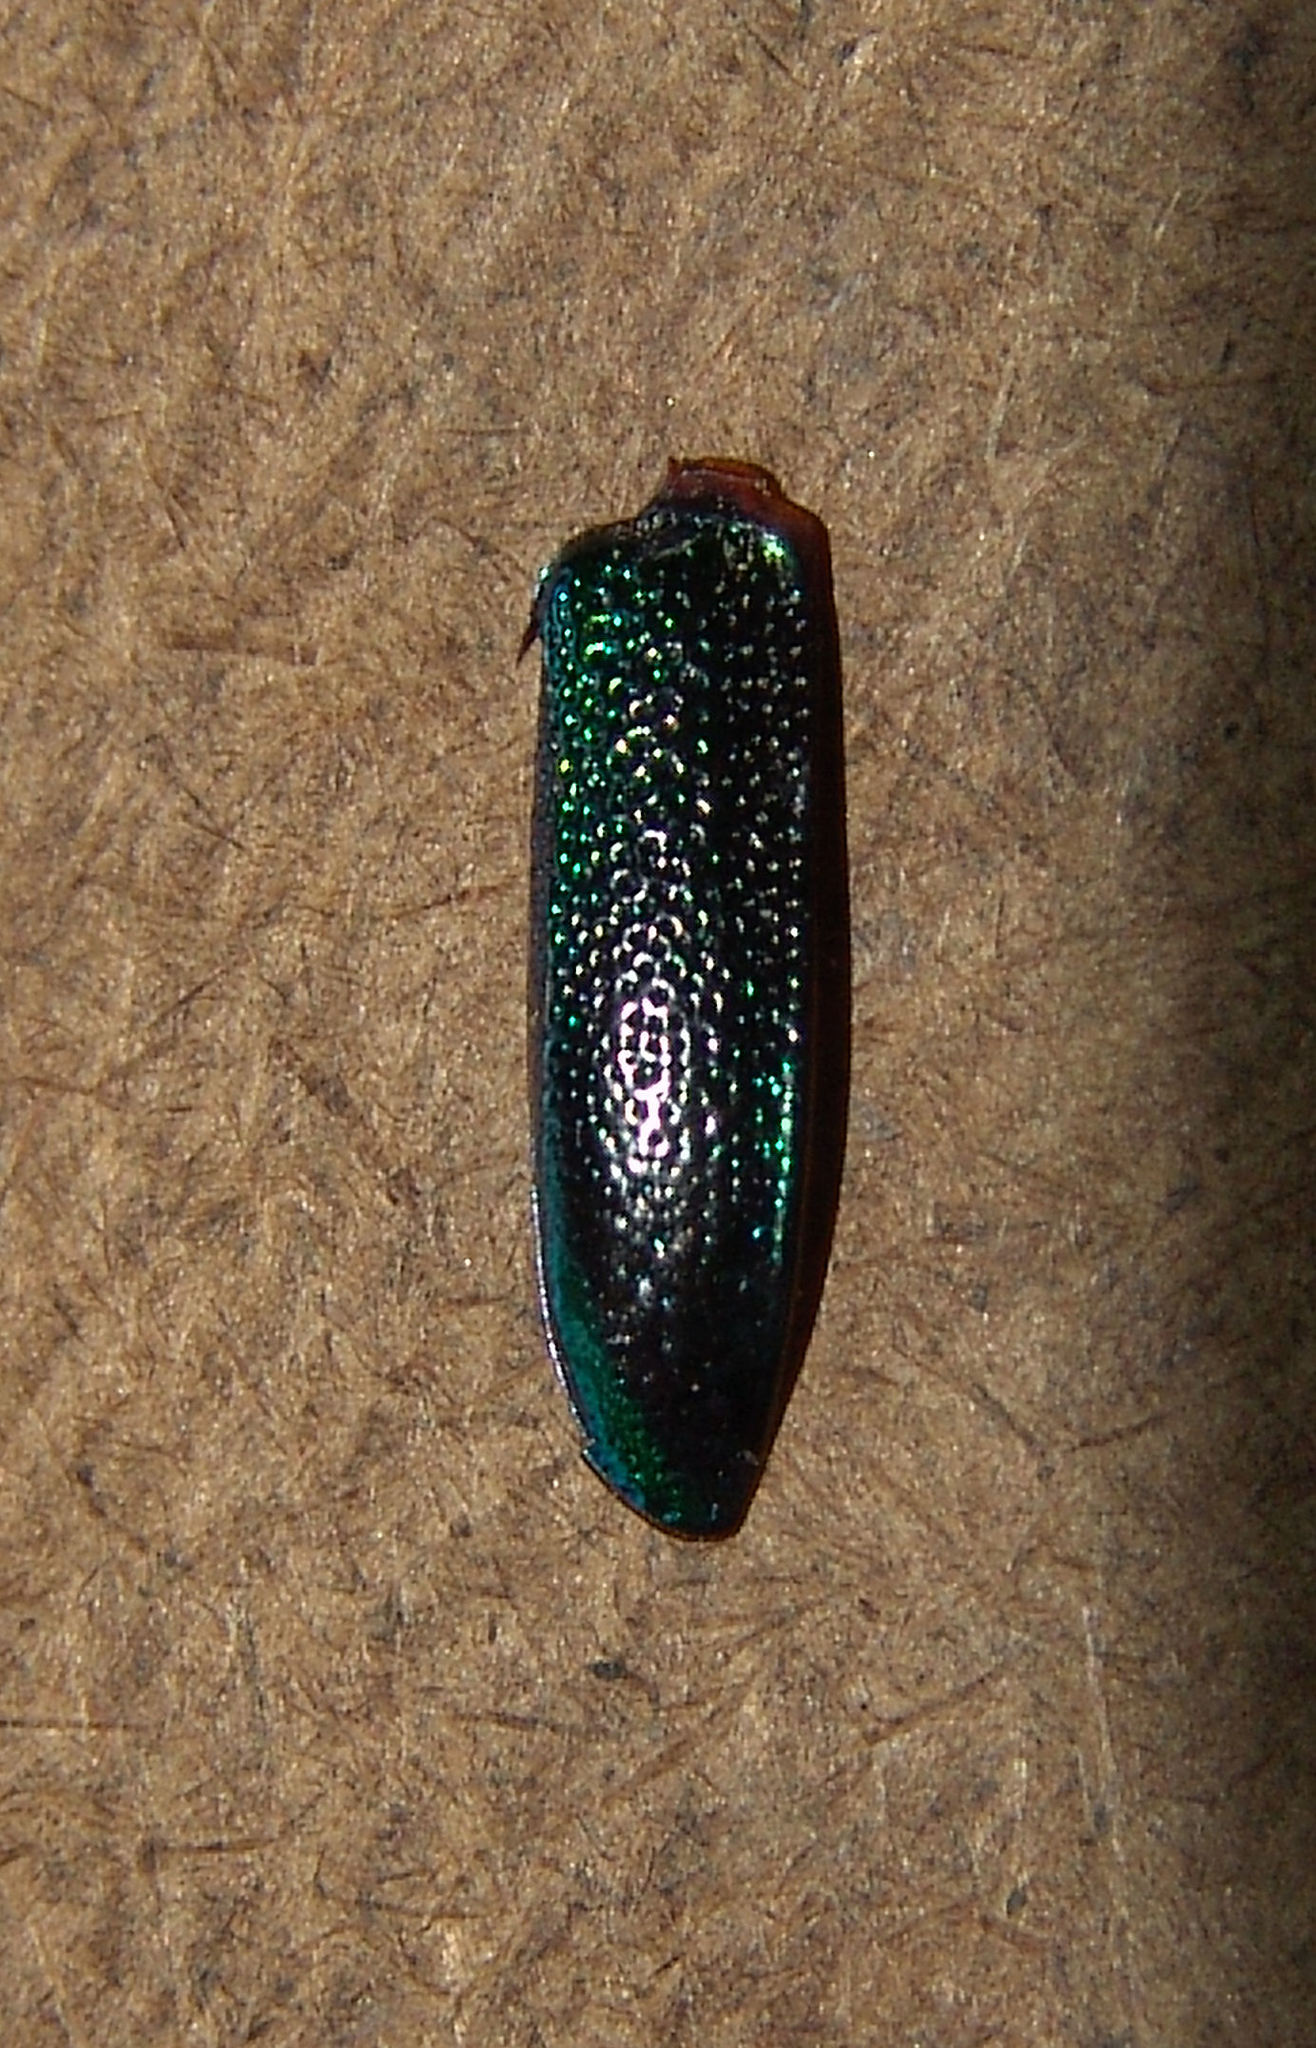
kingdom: Animalia
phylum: Arthropoda
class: Insecta
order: Coleoptera
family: Carabidae
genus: Tetracha
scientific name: Tetracha virginica
